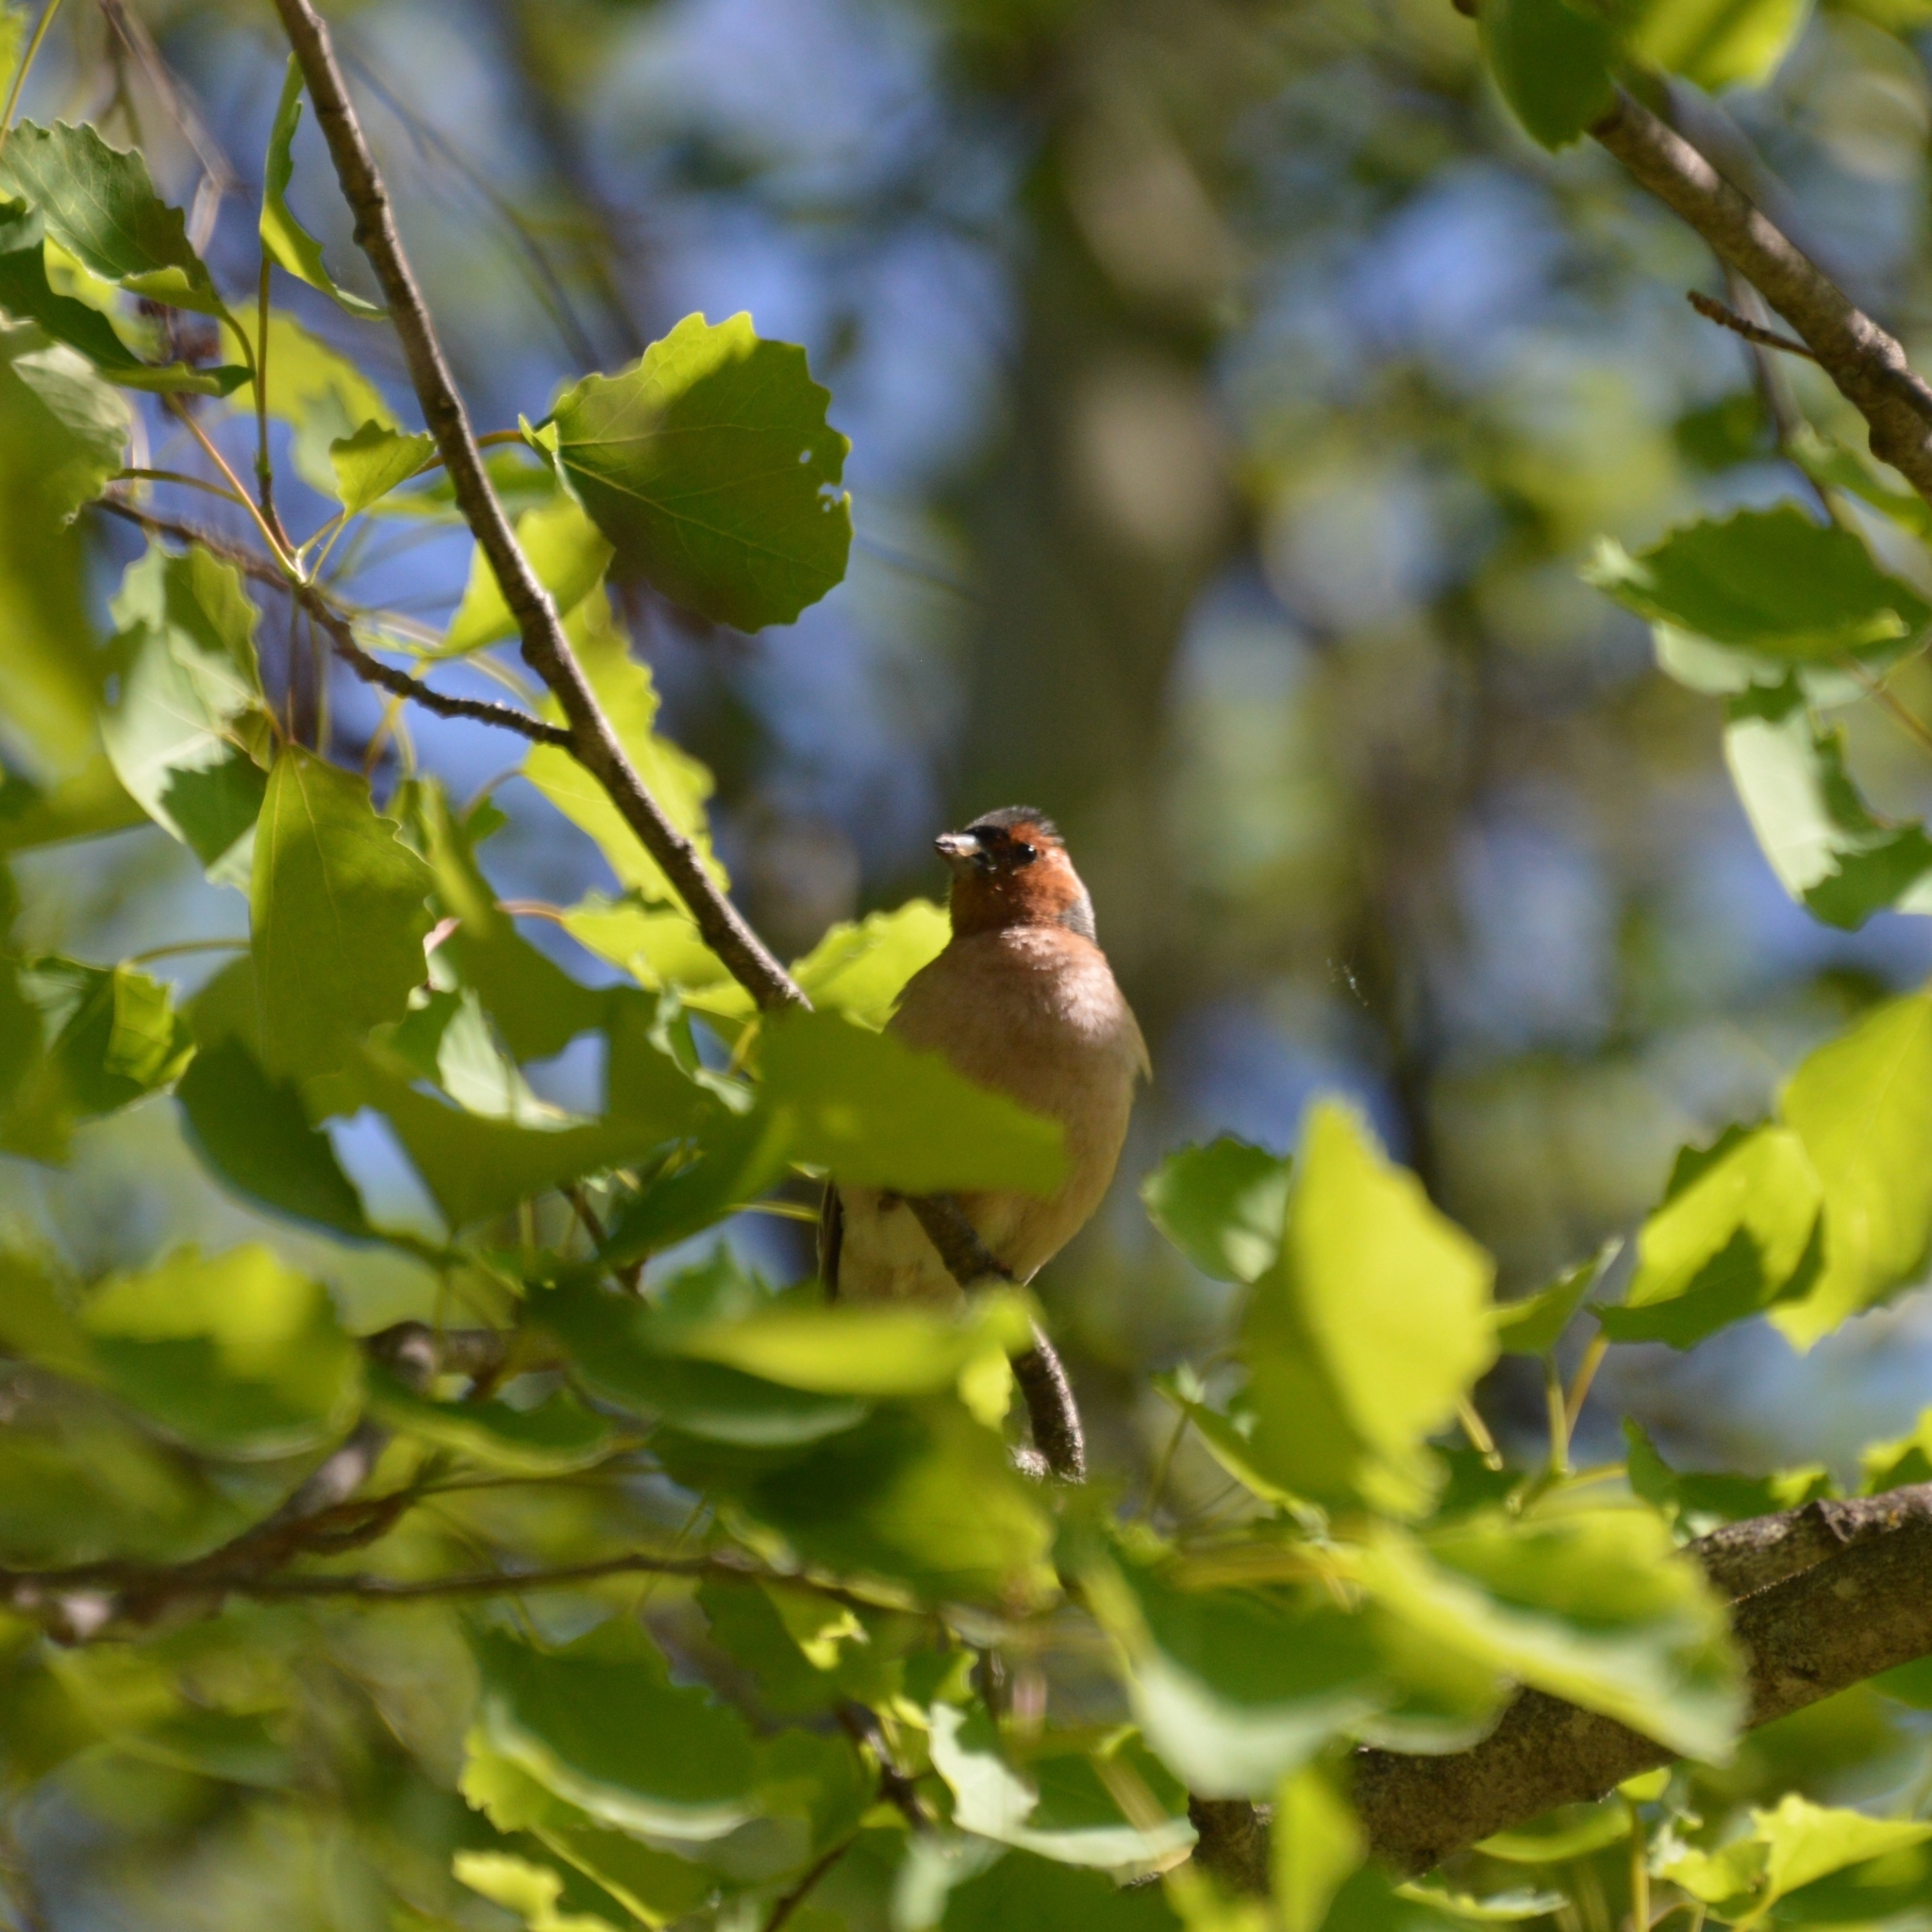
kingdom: Animalia
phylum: Chordata
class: Aves
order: Passeriformes
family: Fringillidae
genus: Fringilla
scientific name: Fringilla coelebs
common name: Common chaffinch
